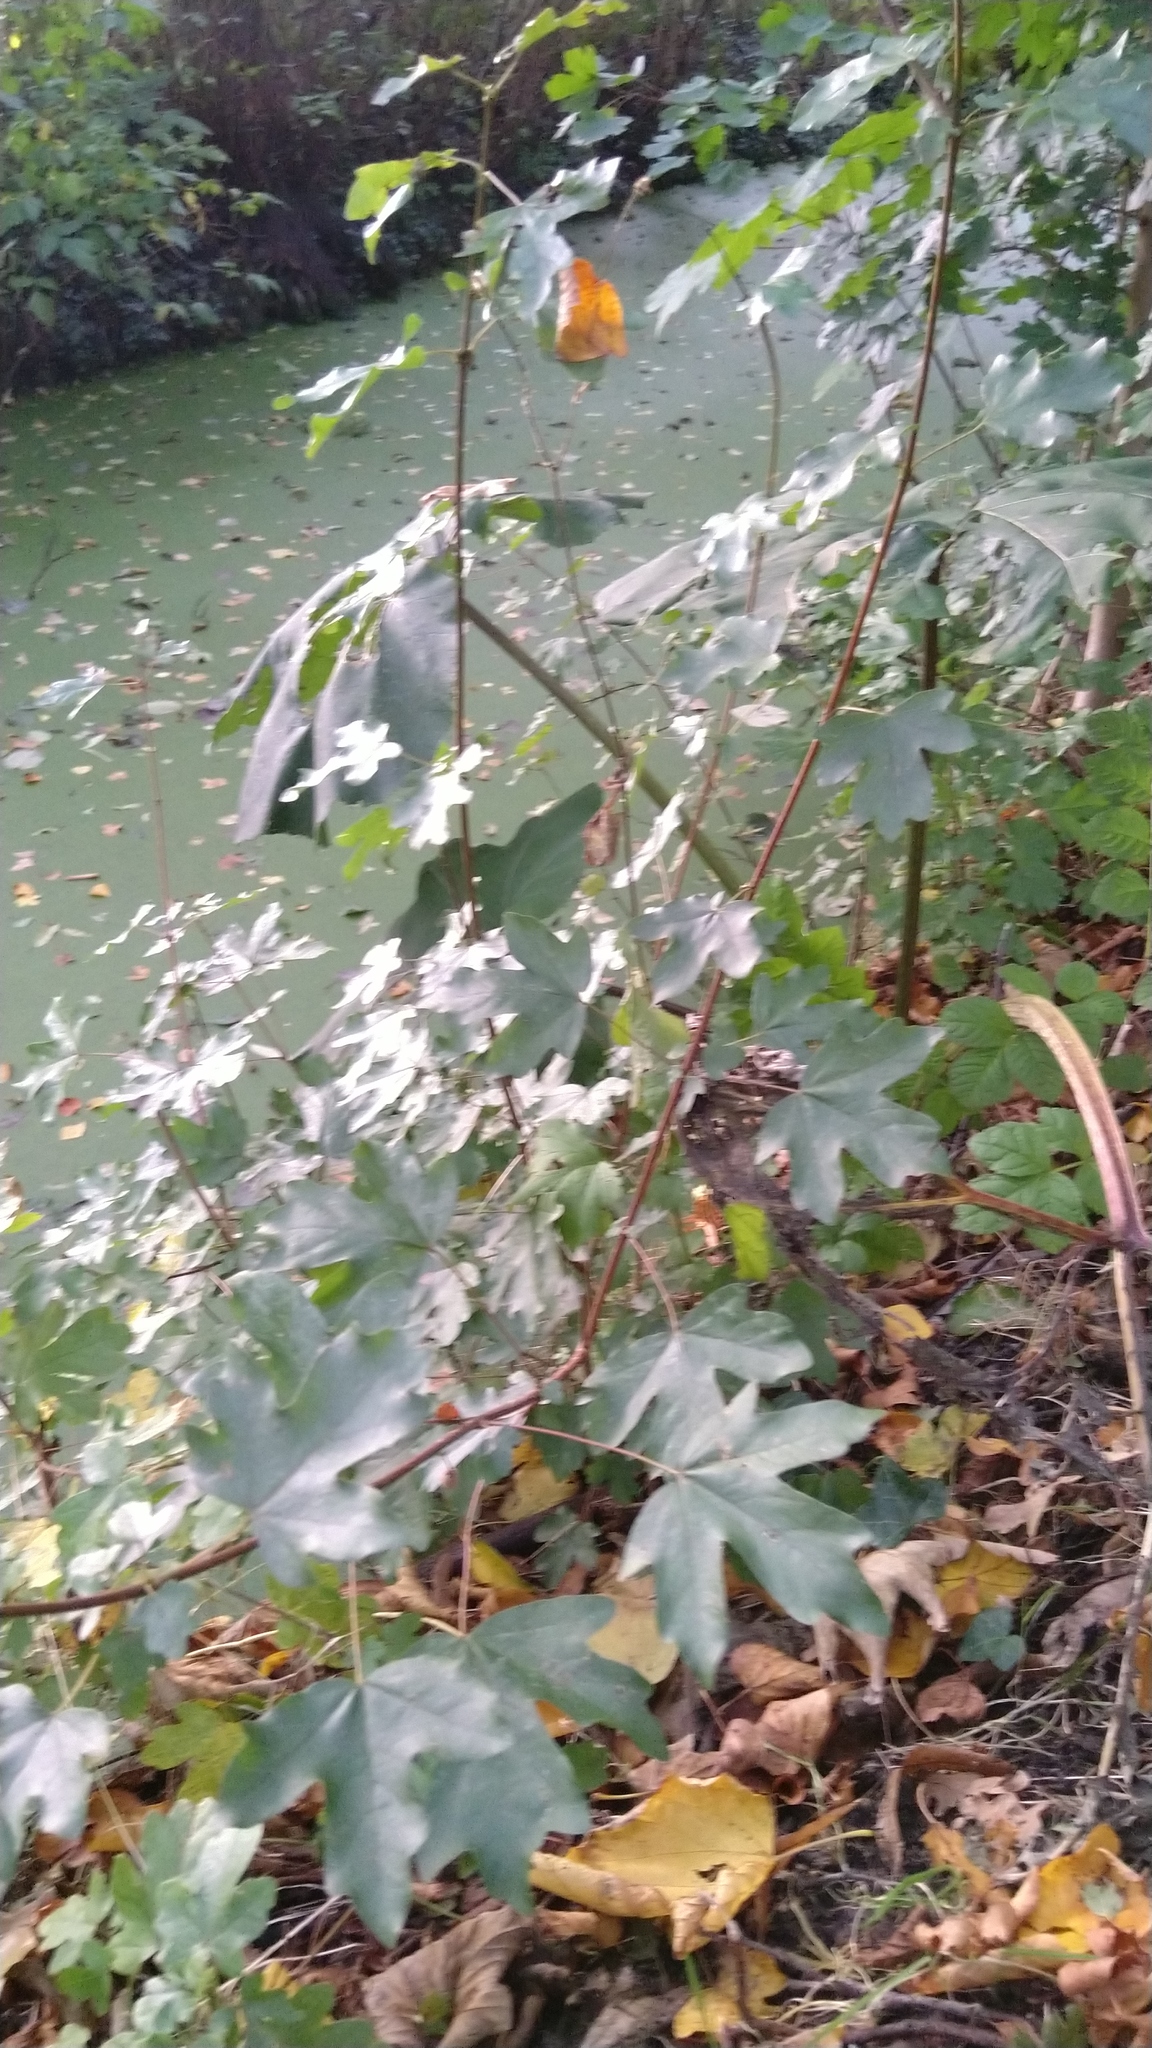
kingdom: Plantae
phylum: Tracheophyta
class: Magnoliopsida
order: Sapindales
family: Sapindaceae
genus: Acer
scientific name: Acer campestre
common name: Field maple
